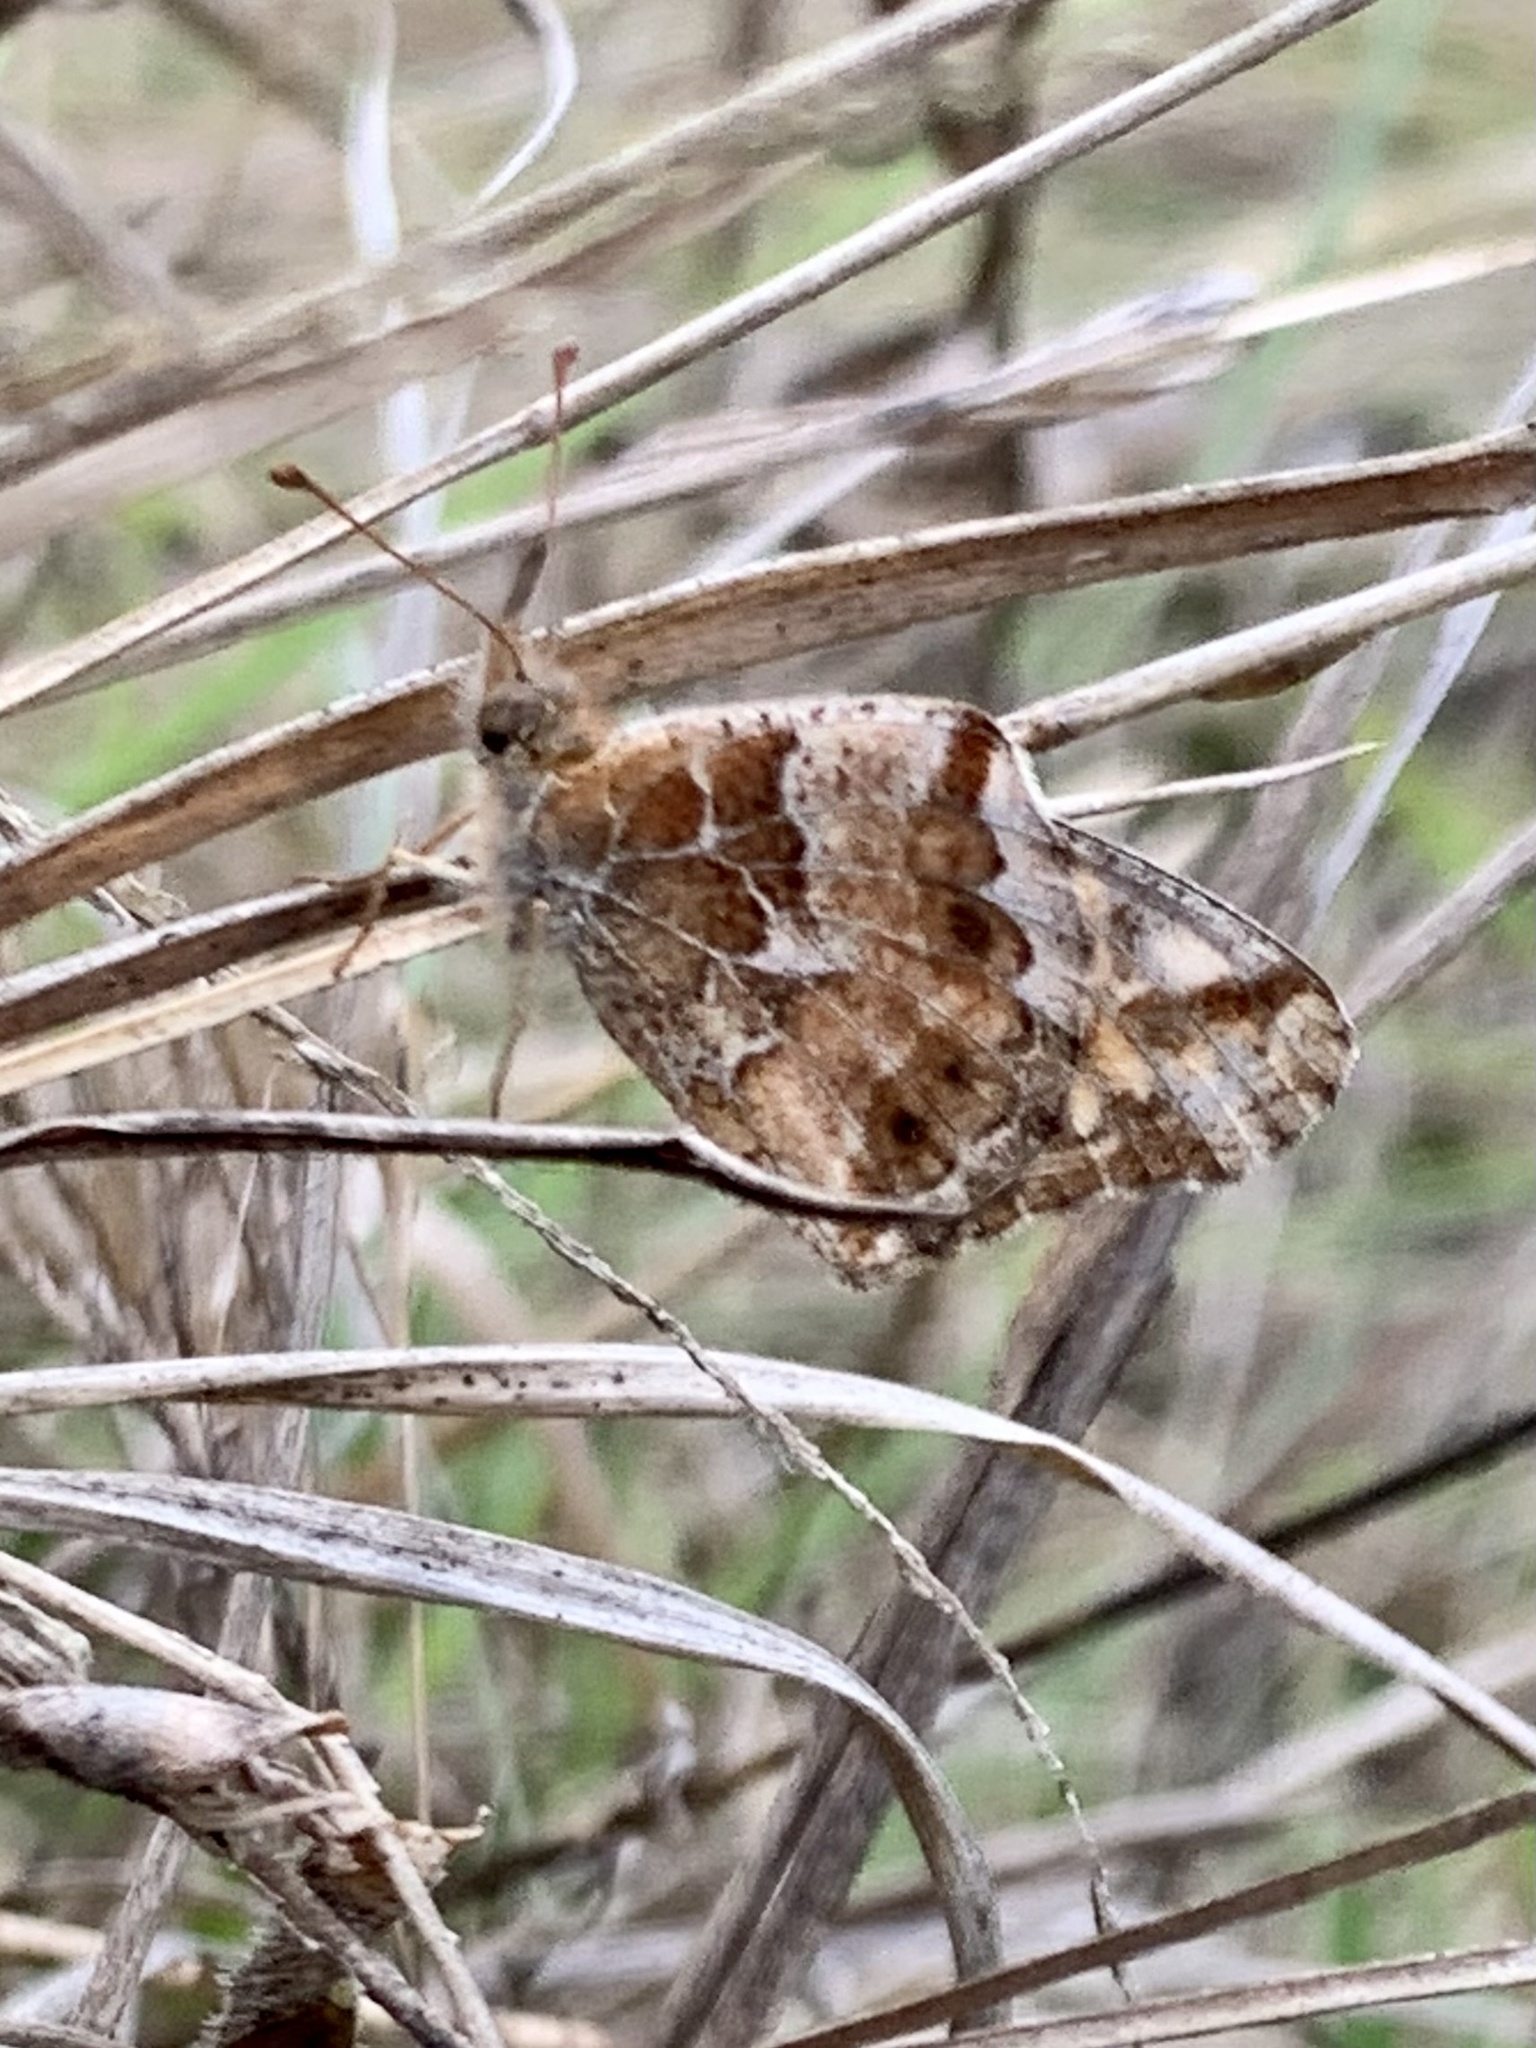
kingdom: Animalia
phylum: Arthropoda
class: Insecta
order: Lepidoptera
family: Nymphalidae
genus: Euptoieta
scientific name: Euptoieta claudia
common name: Variegated fritillary
